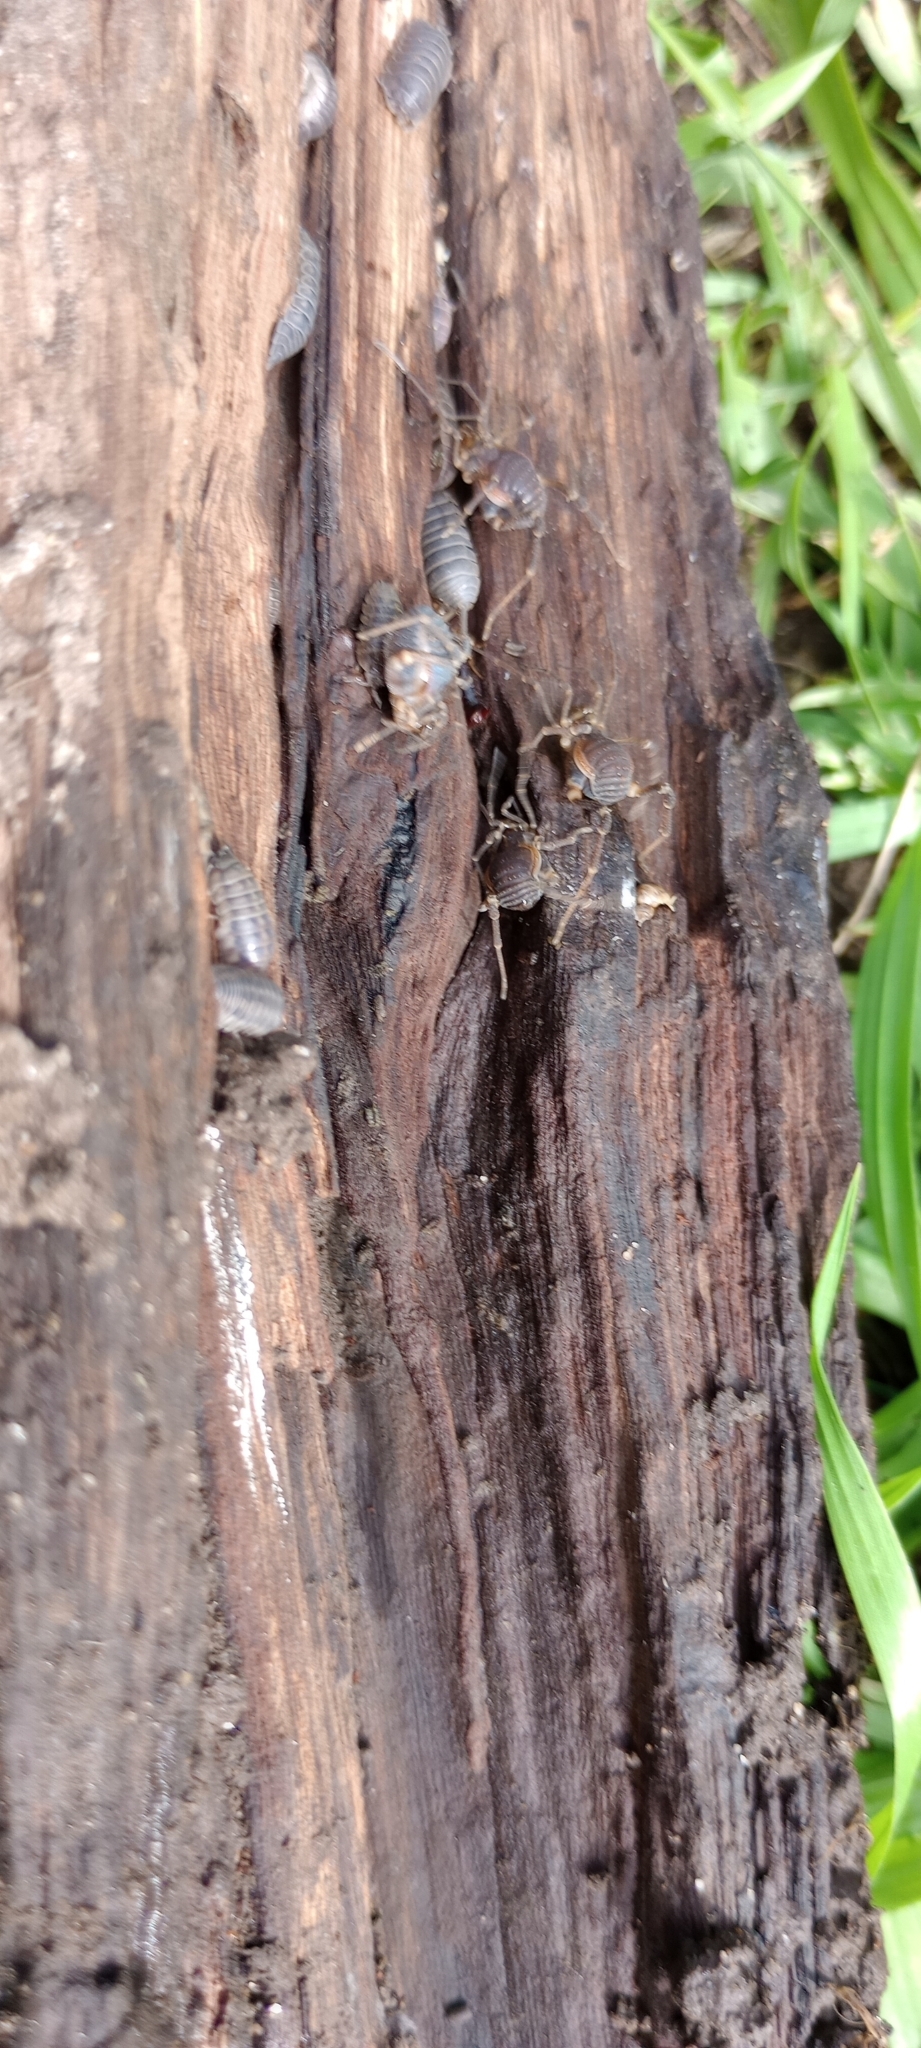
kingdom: Animalia
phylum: Arthropoda
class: Arachnida
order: Opiliones
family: Gonyleptidae
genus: Acanthopachylus
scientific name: Acanthopachylus robustus
